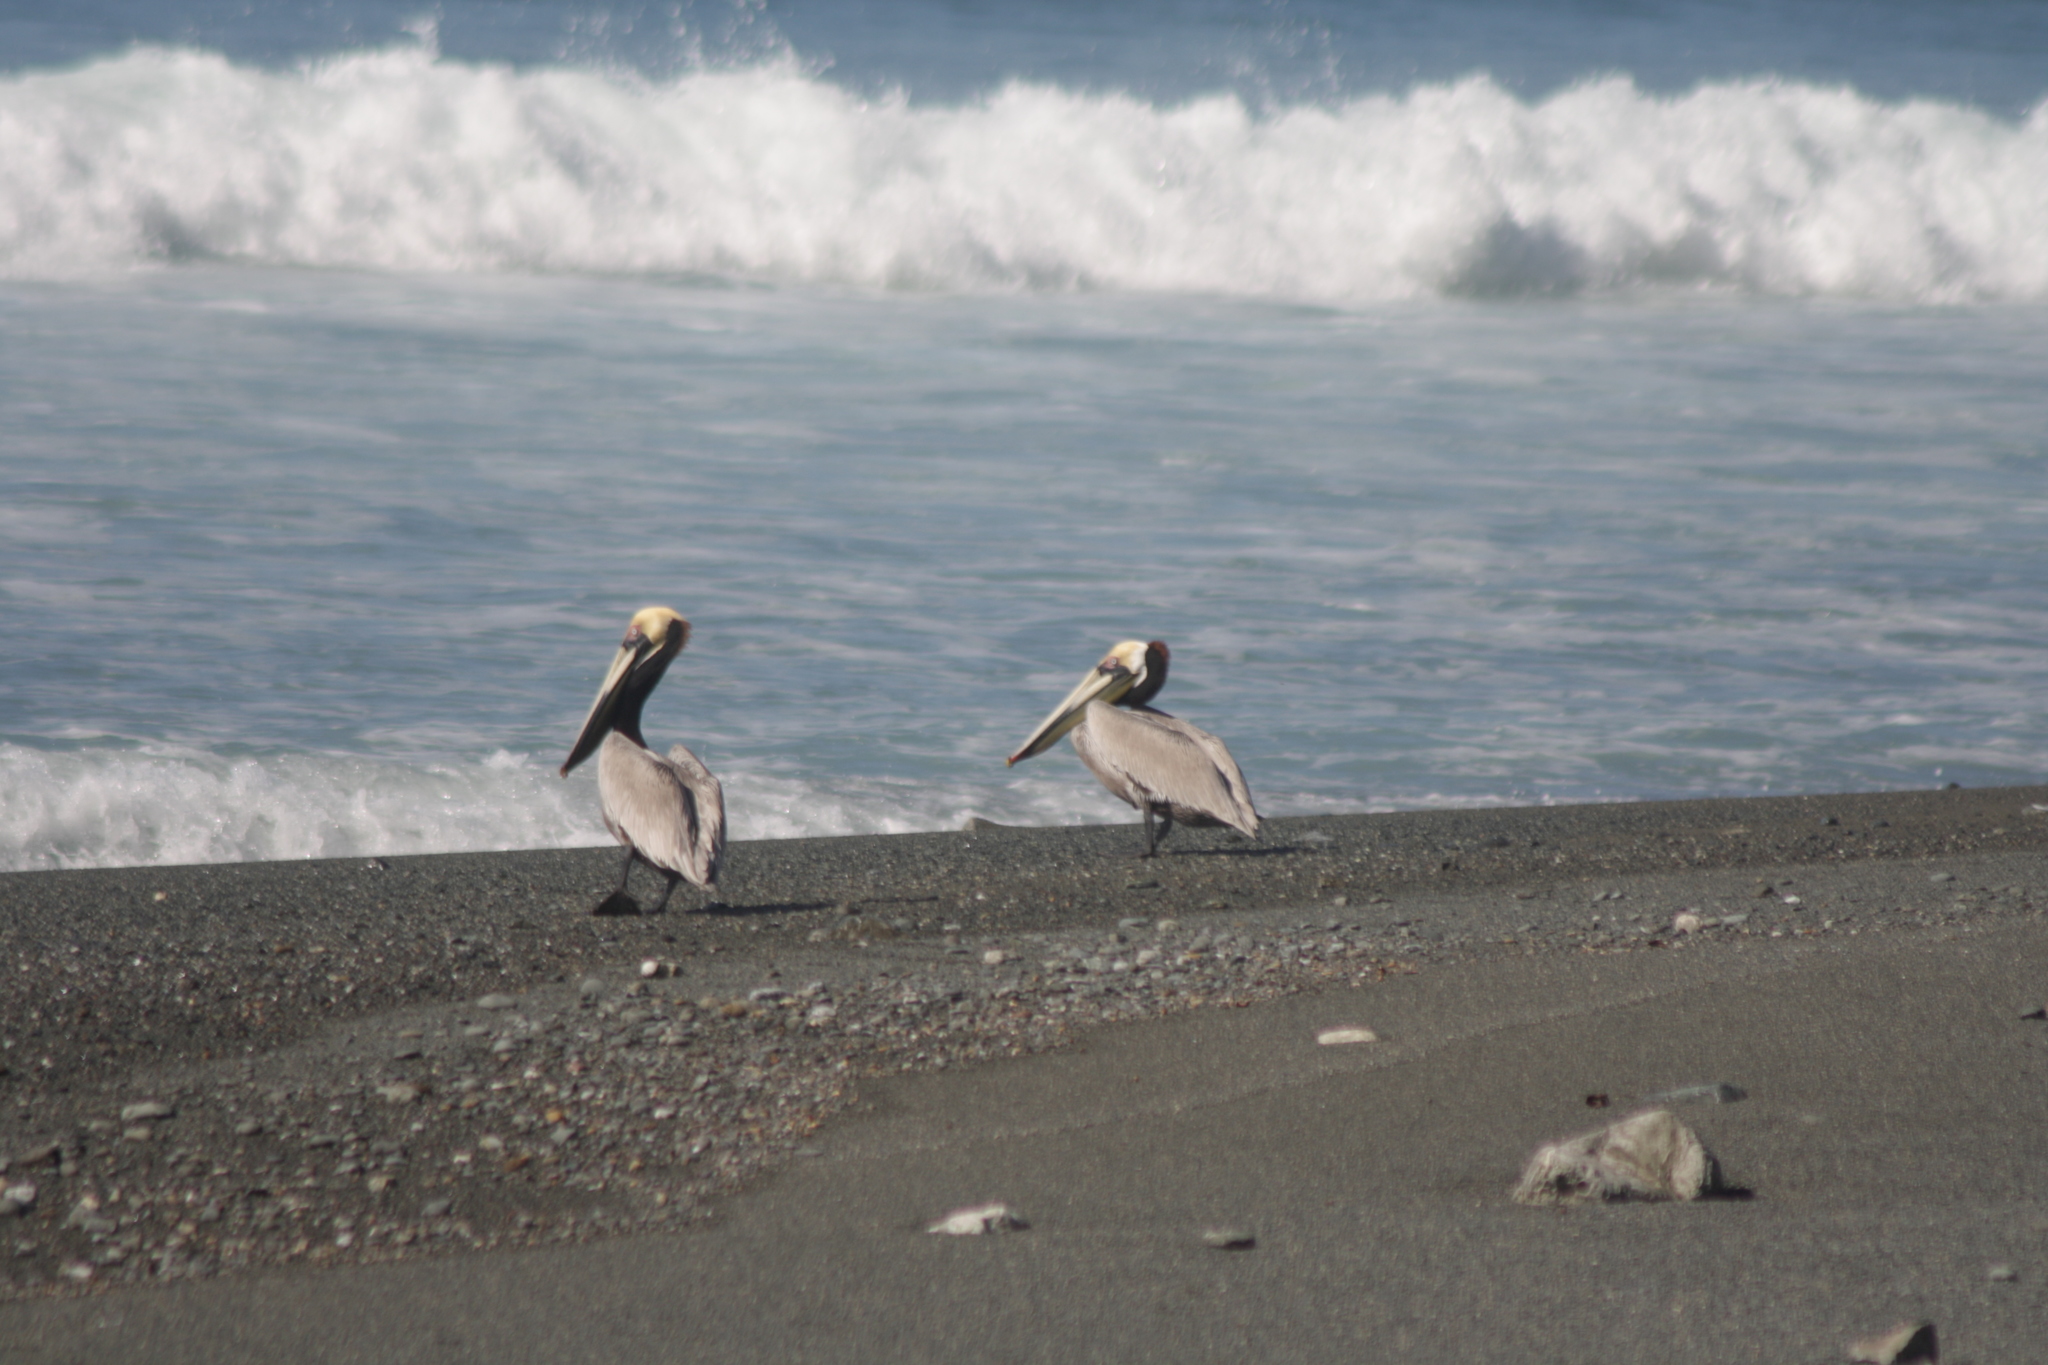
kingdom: Animalia
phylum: Chordata
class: Aves
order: Pelecaniformes
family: Pelecanidae
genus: Pelecanus
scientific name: Pelecanus occidentalis
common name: Brown pelican
